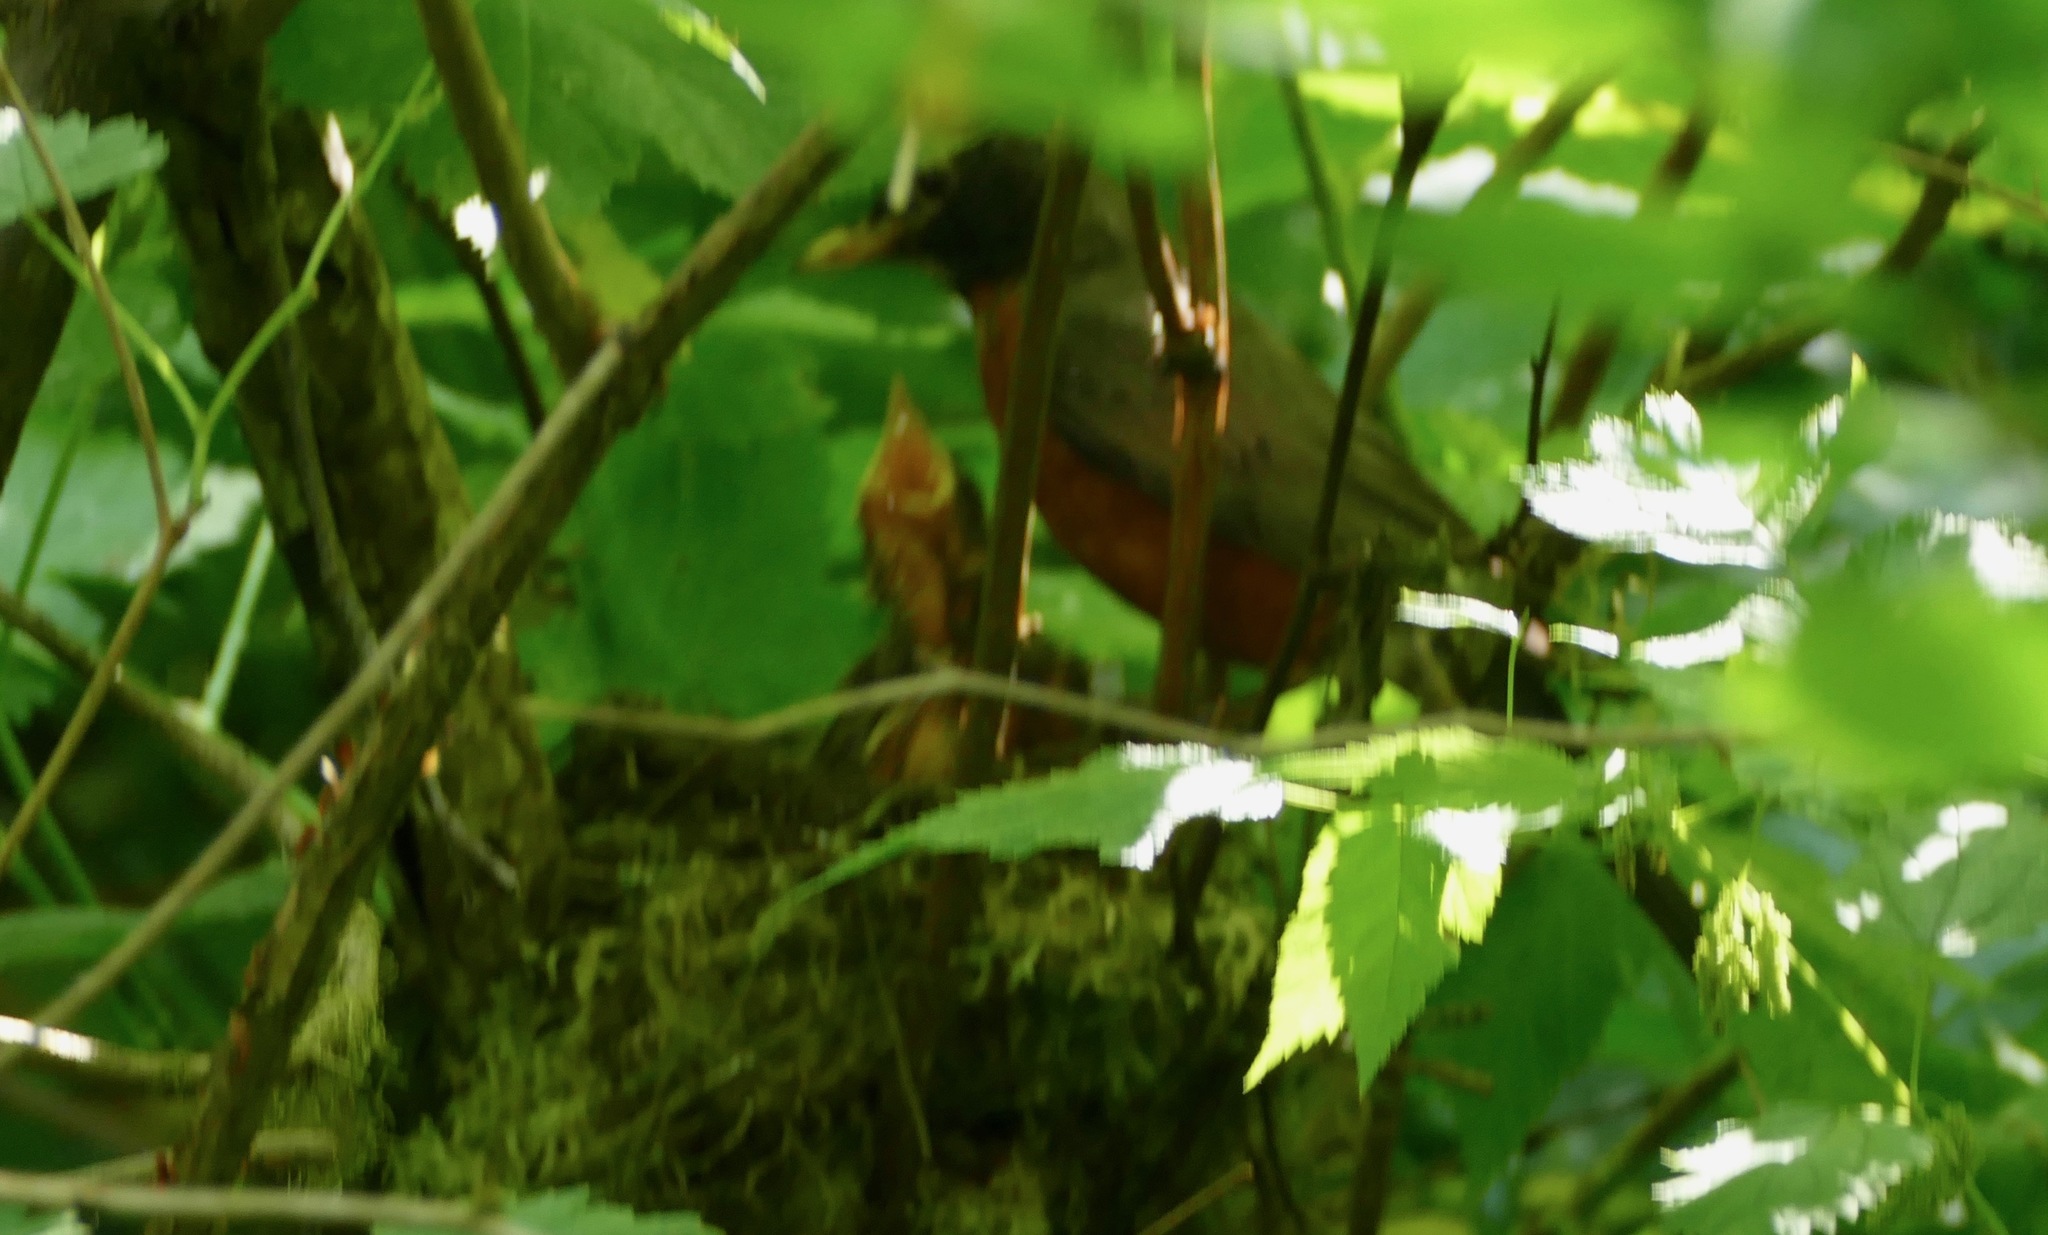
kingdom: Animalia
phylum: Chordata
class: Aves
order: Passeriformes
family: Turdidae
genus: Turdus
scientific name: Turdus migratorius
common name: American robin
